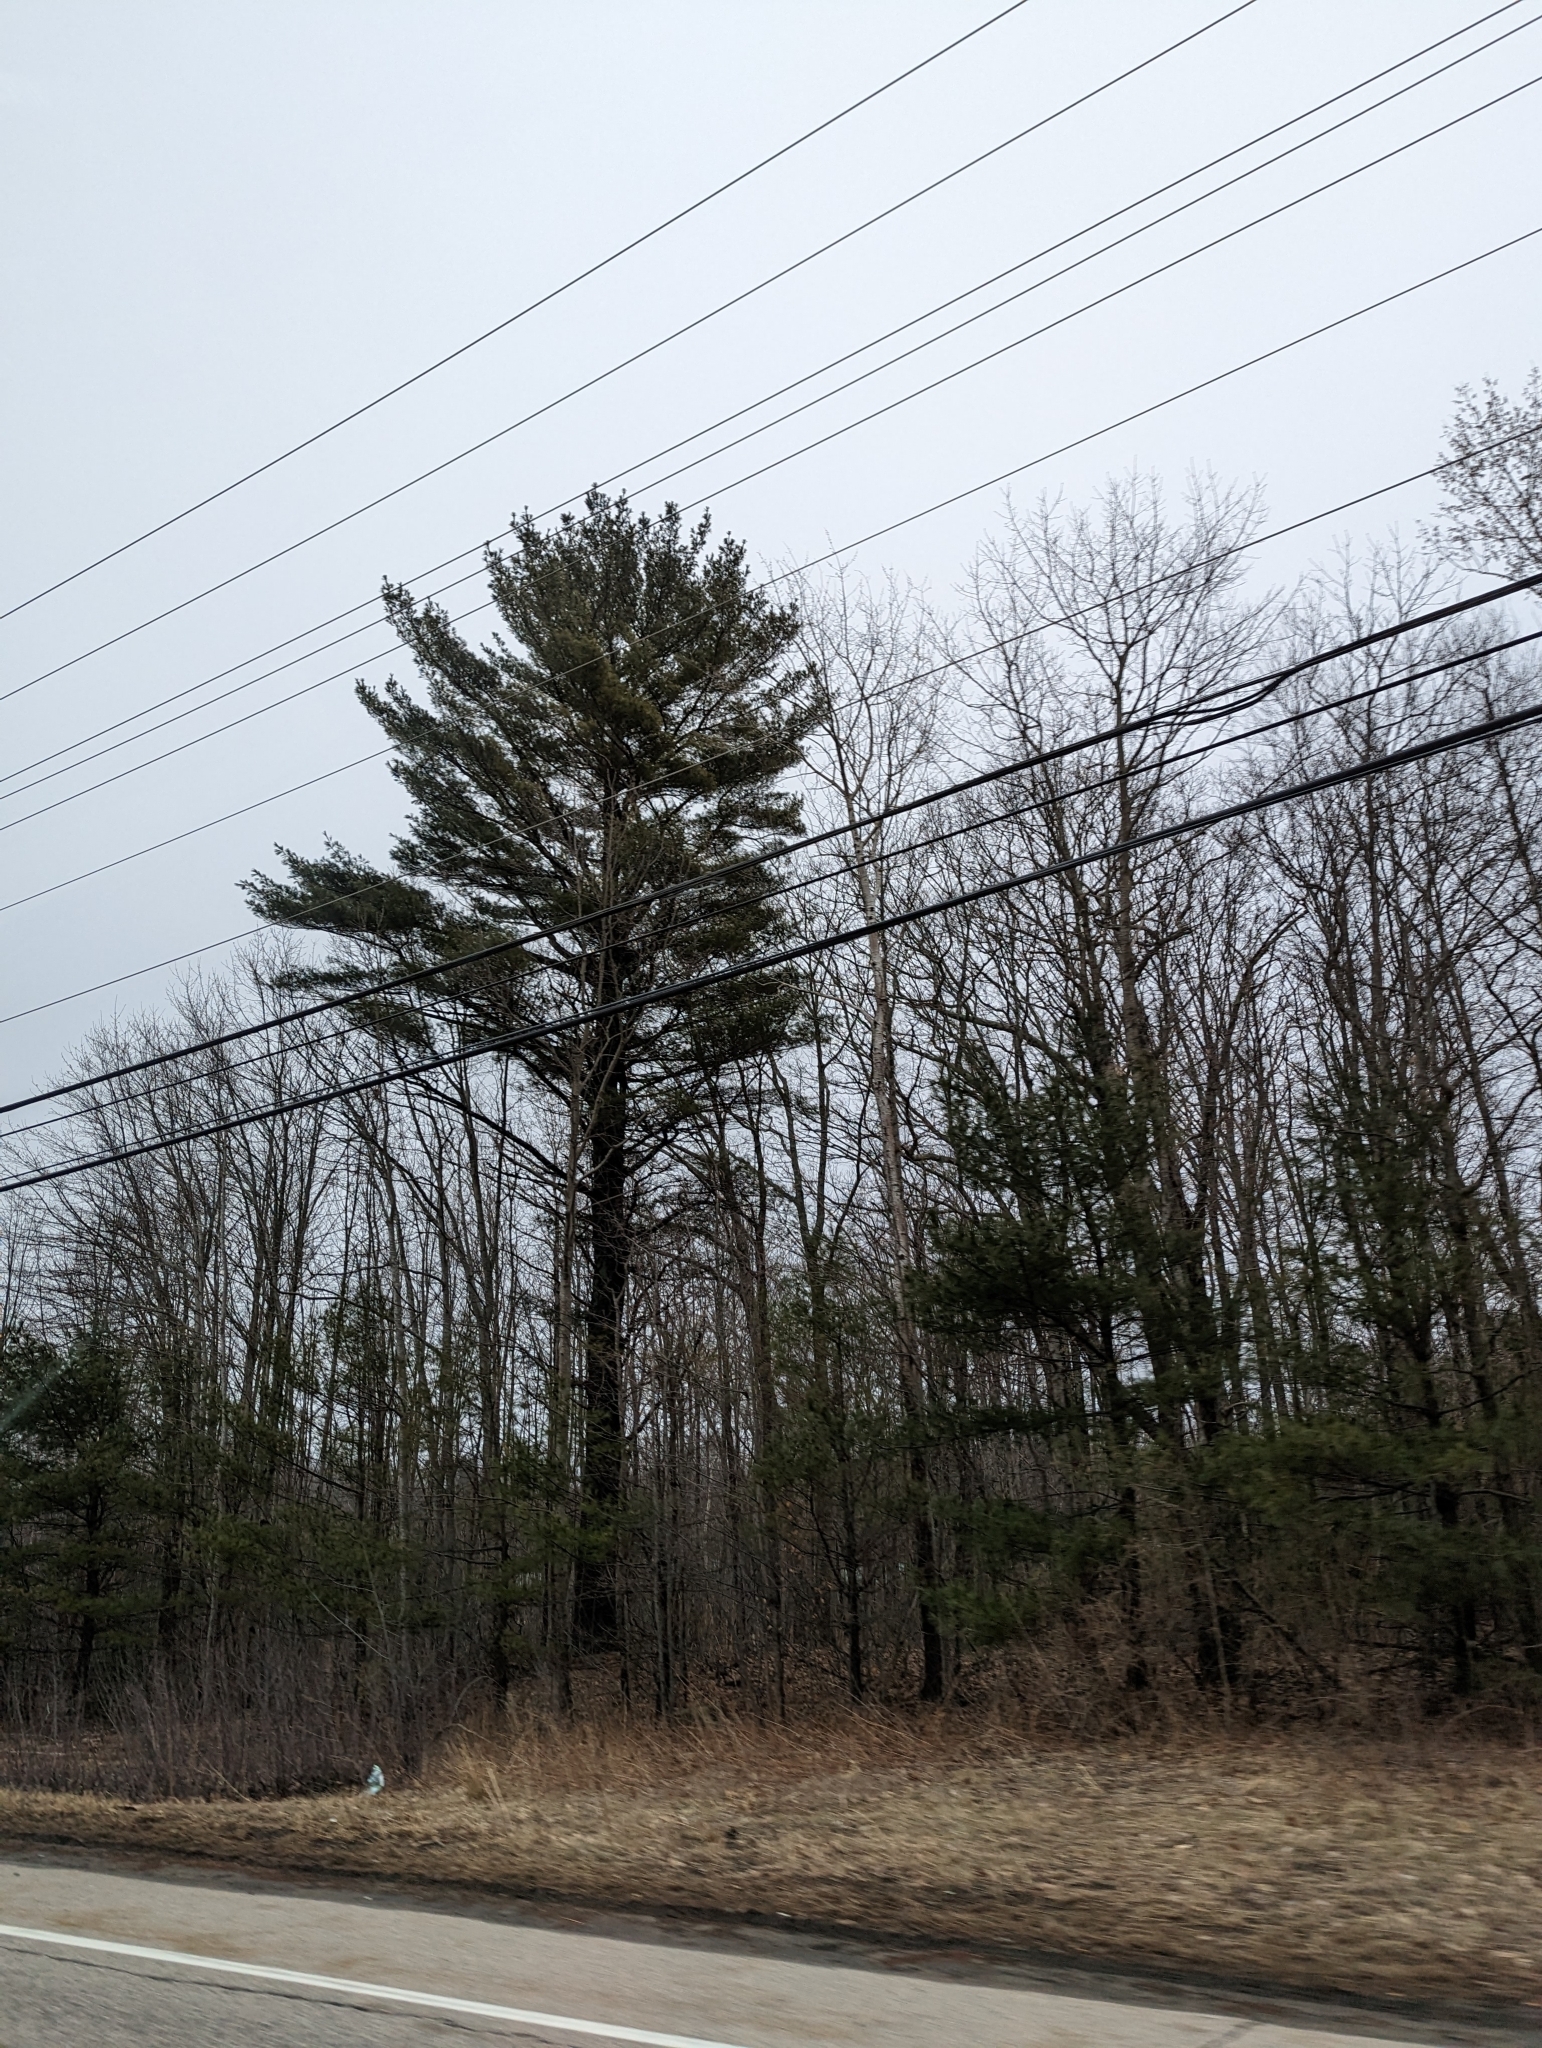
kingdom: Plantae
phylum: Tracheophyta
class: Pinopsida
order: Pinales
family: Pinaceae
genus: Pinus
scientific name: Pinus strobus
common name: Weymouth pine
